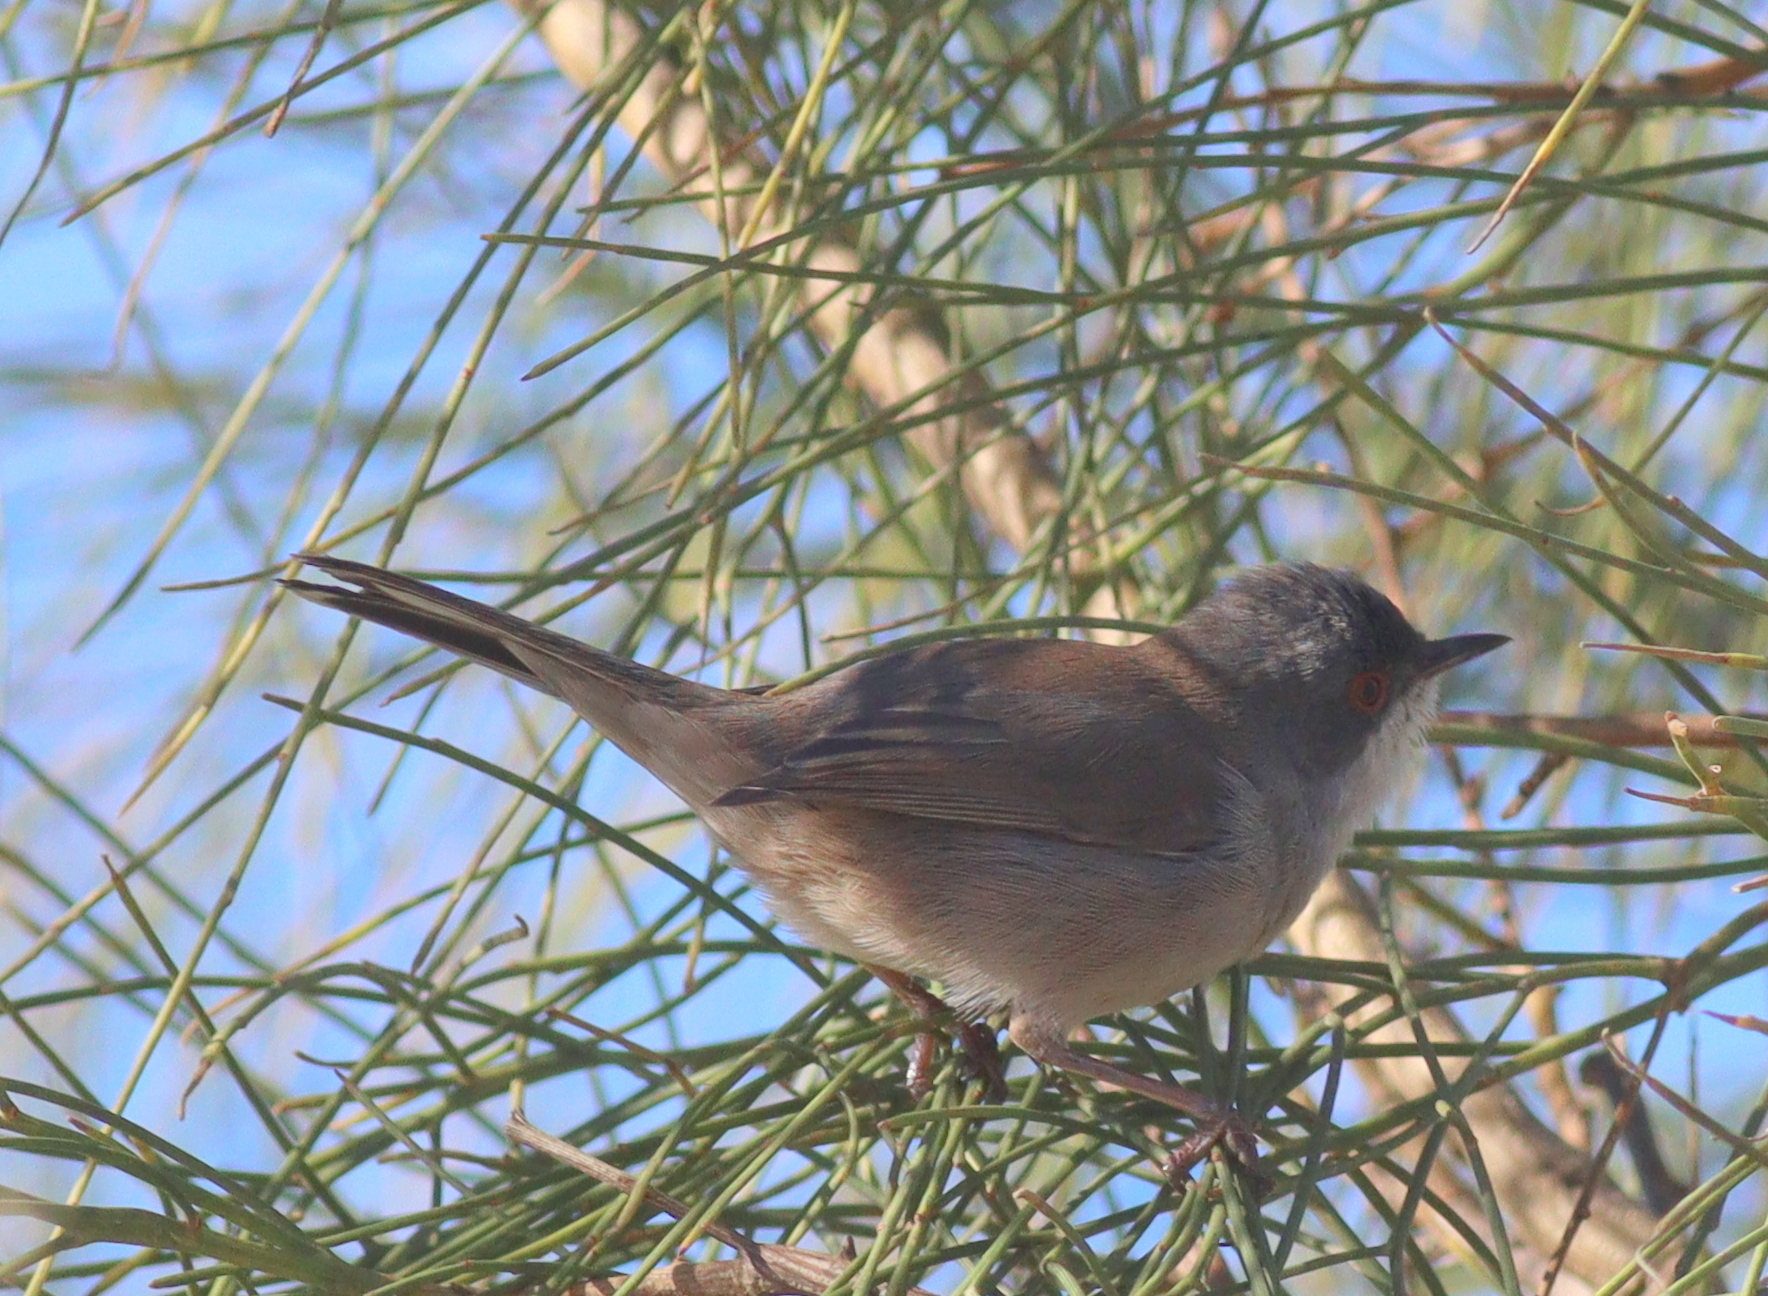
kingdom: Animalia
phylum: Chordata
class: Aves
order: Passeriformes
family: Sylviidae
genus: Curruca
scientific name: Curruca melanocephala
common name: Sardinian warbler
